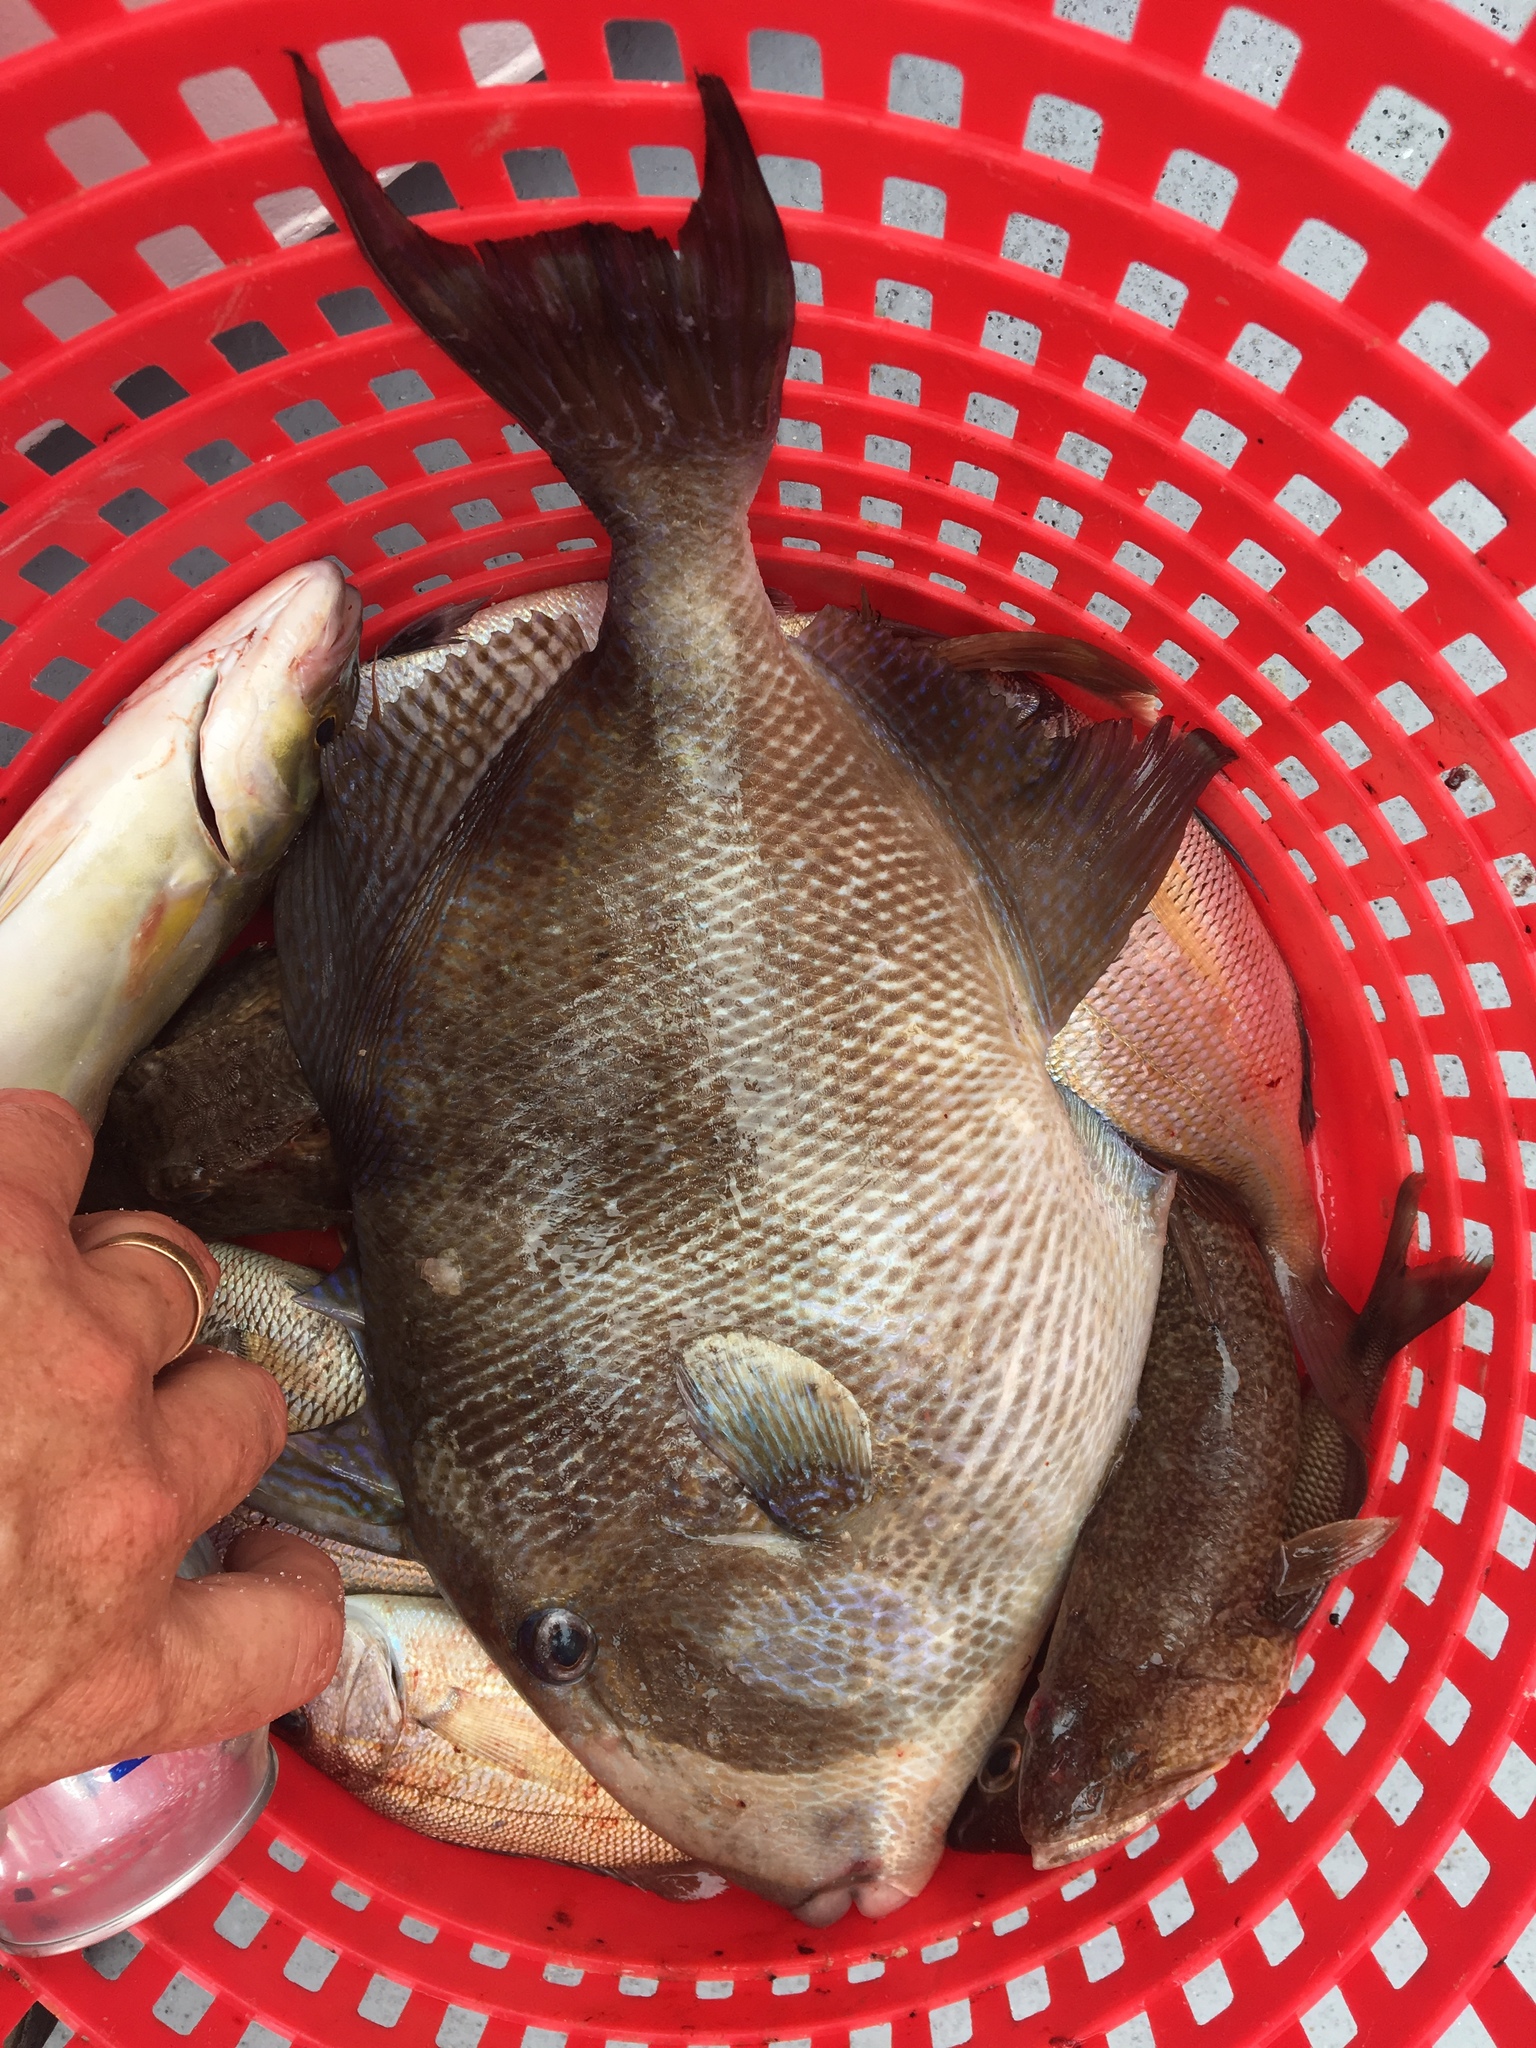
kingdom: Animalia
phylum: Chordata
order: Tetraodontiformes
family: Balistidae
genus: Balistes
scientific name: Balistes capriscus
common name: Grey triggerfish
